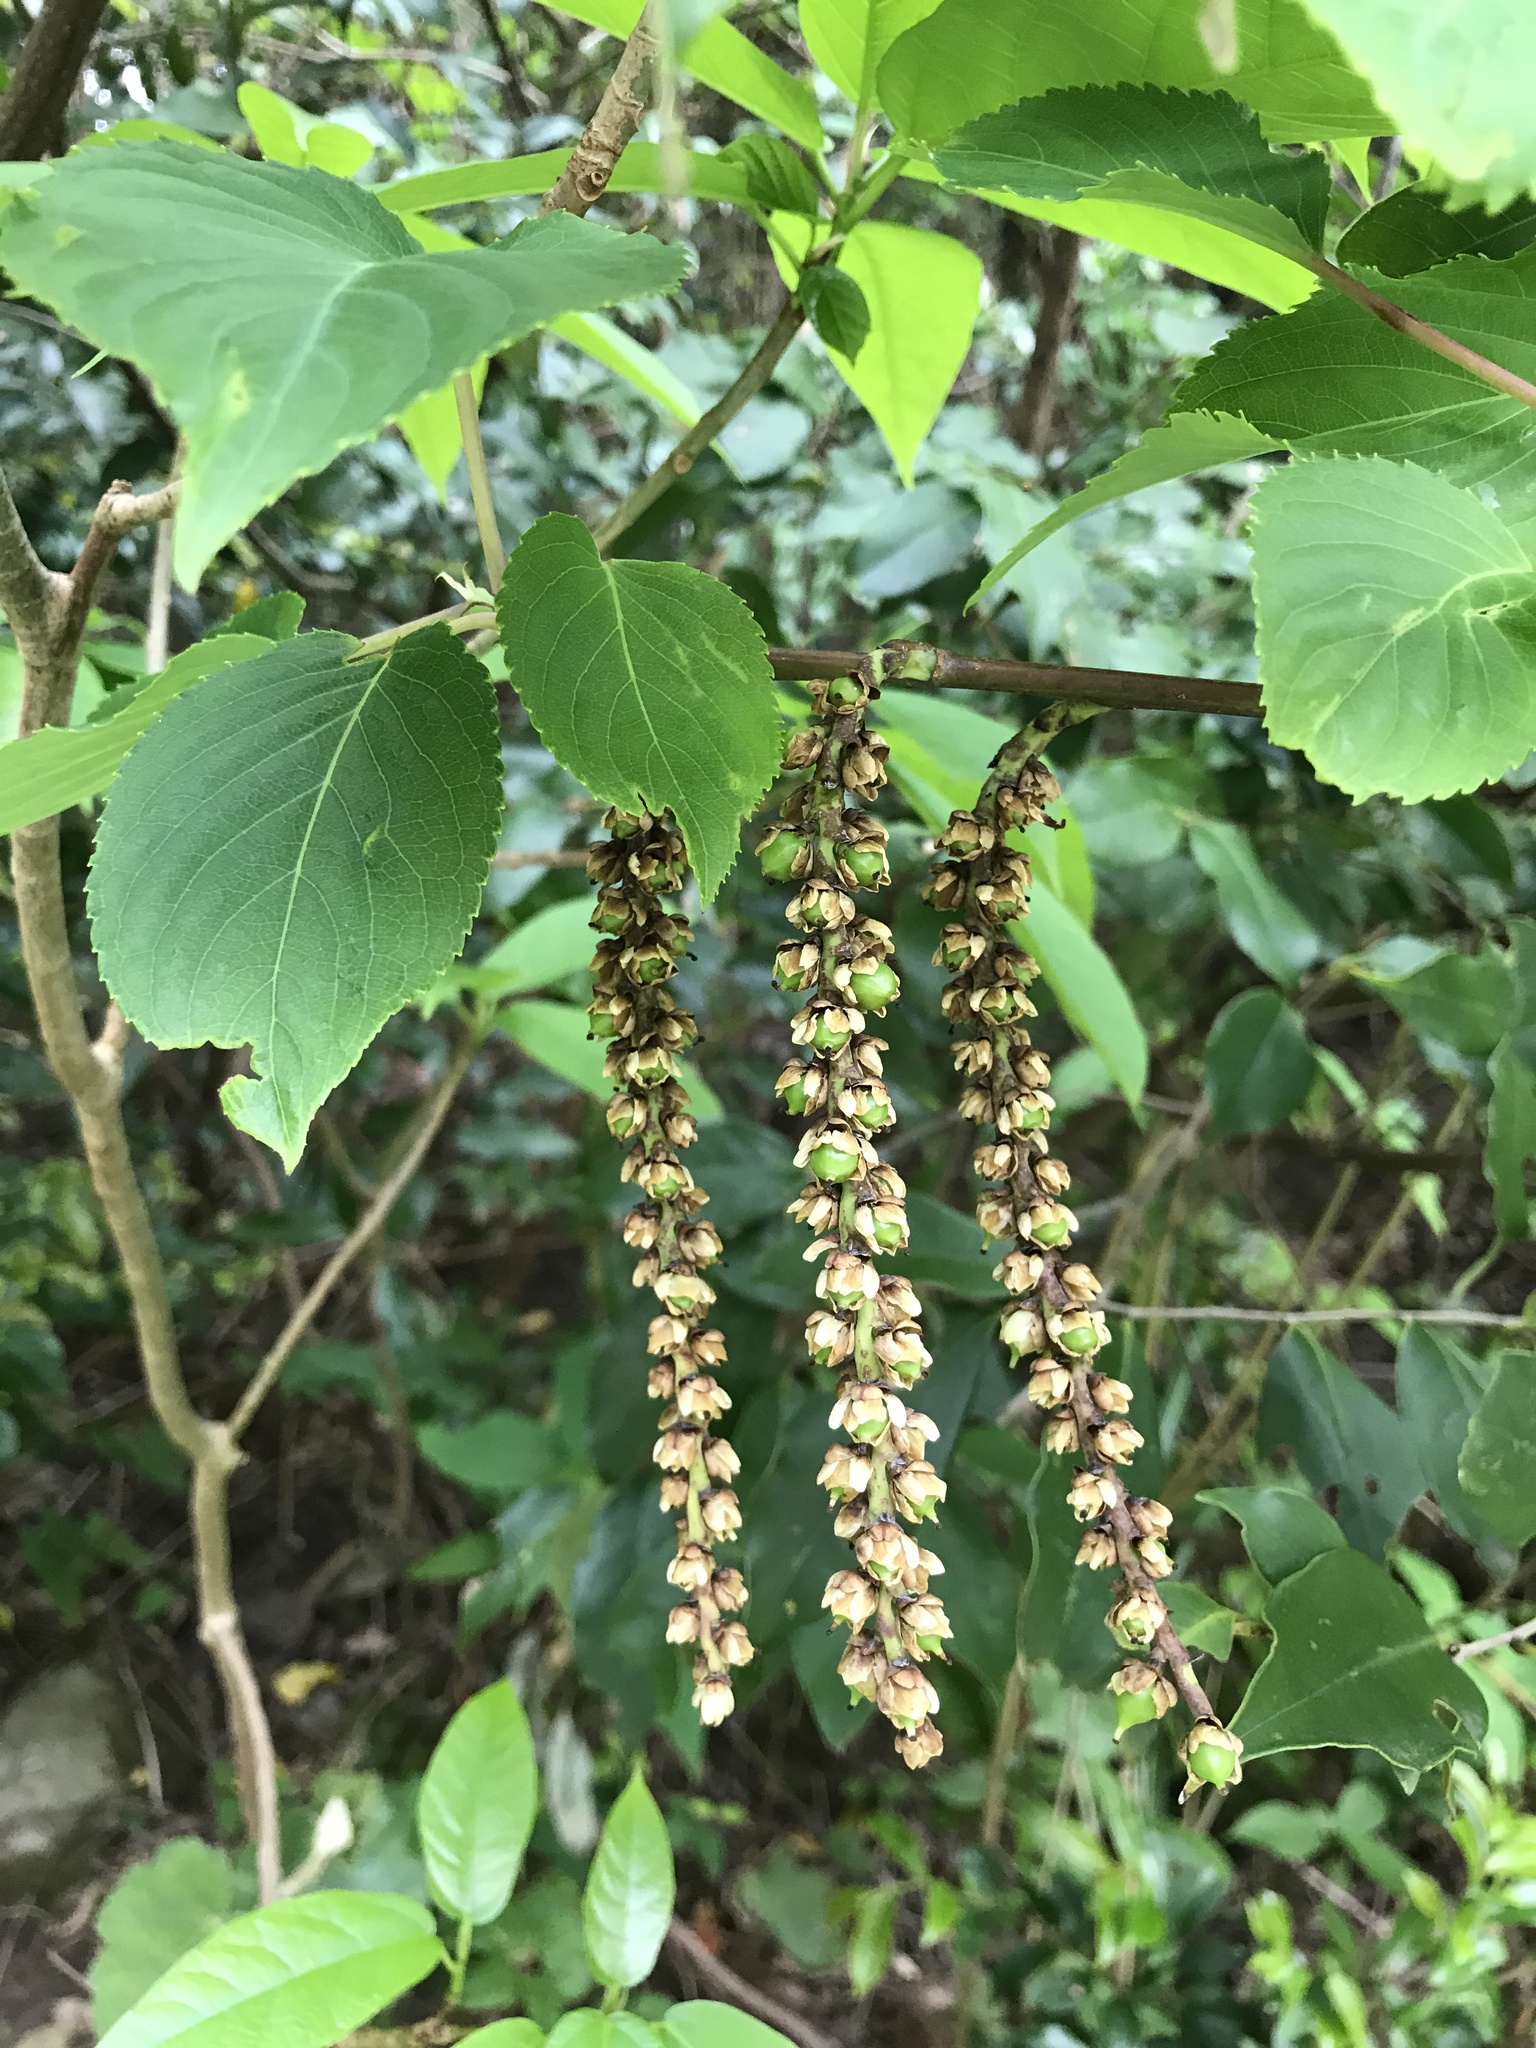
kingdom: Plantae
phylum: Tracheophyta
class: Magnoliopsida
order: Crossosomatales
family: Stachyuraceae
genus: Stachyurus
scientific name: Stachyurus praecox
